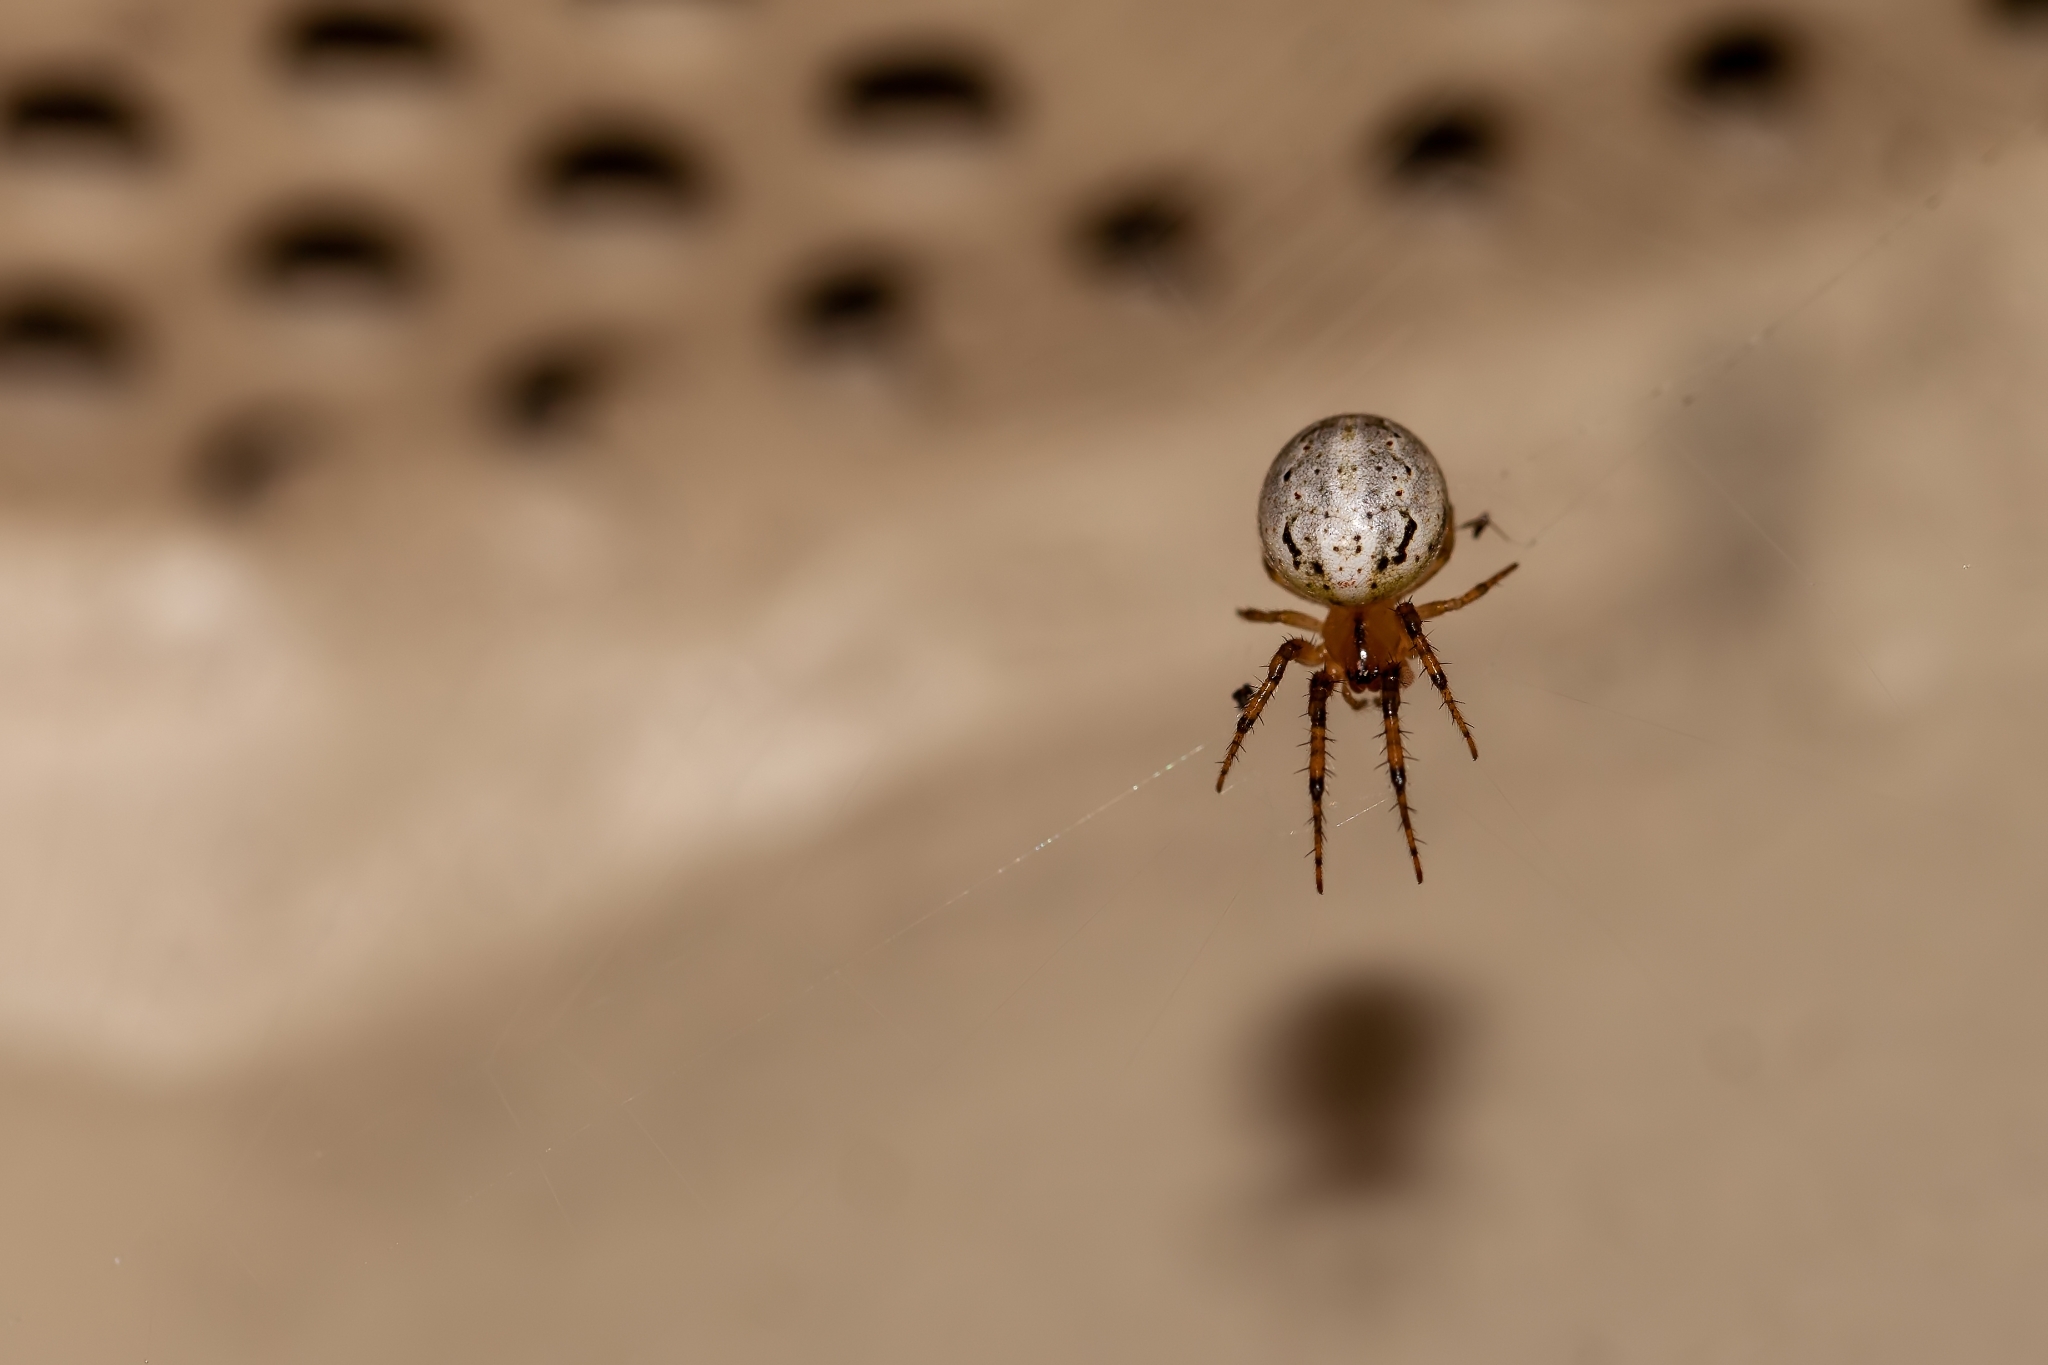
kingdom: Animalia
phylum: Arthropoda
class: Arachnida
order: Araneae
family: Araneidae
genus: Metazygia
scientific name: Metazygia zilloides
